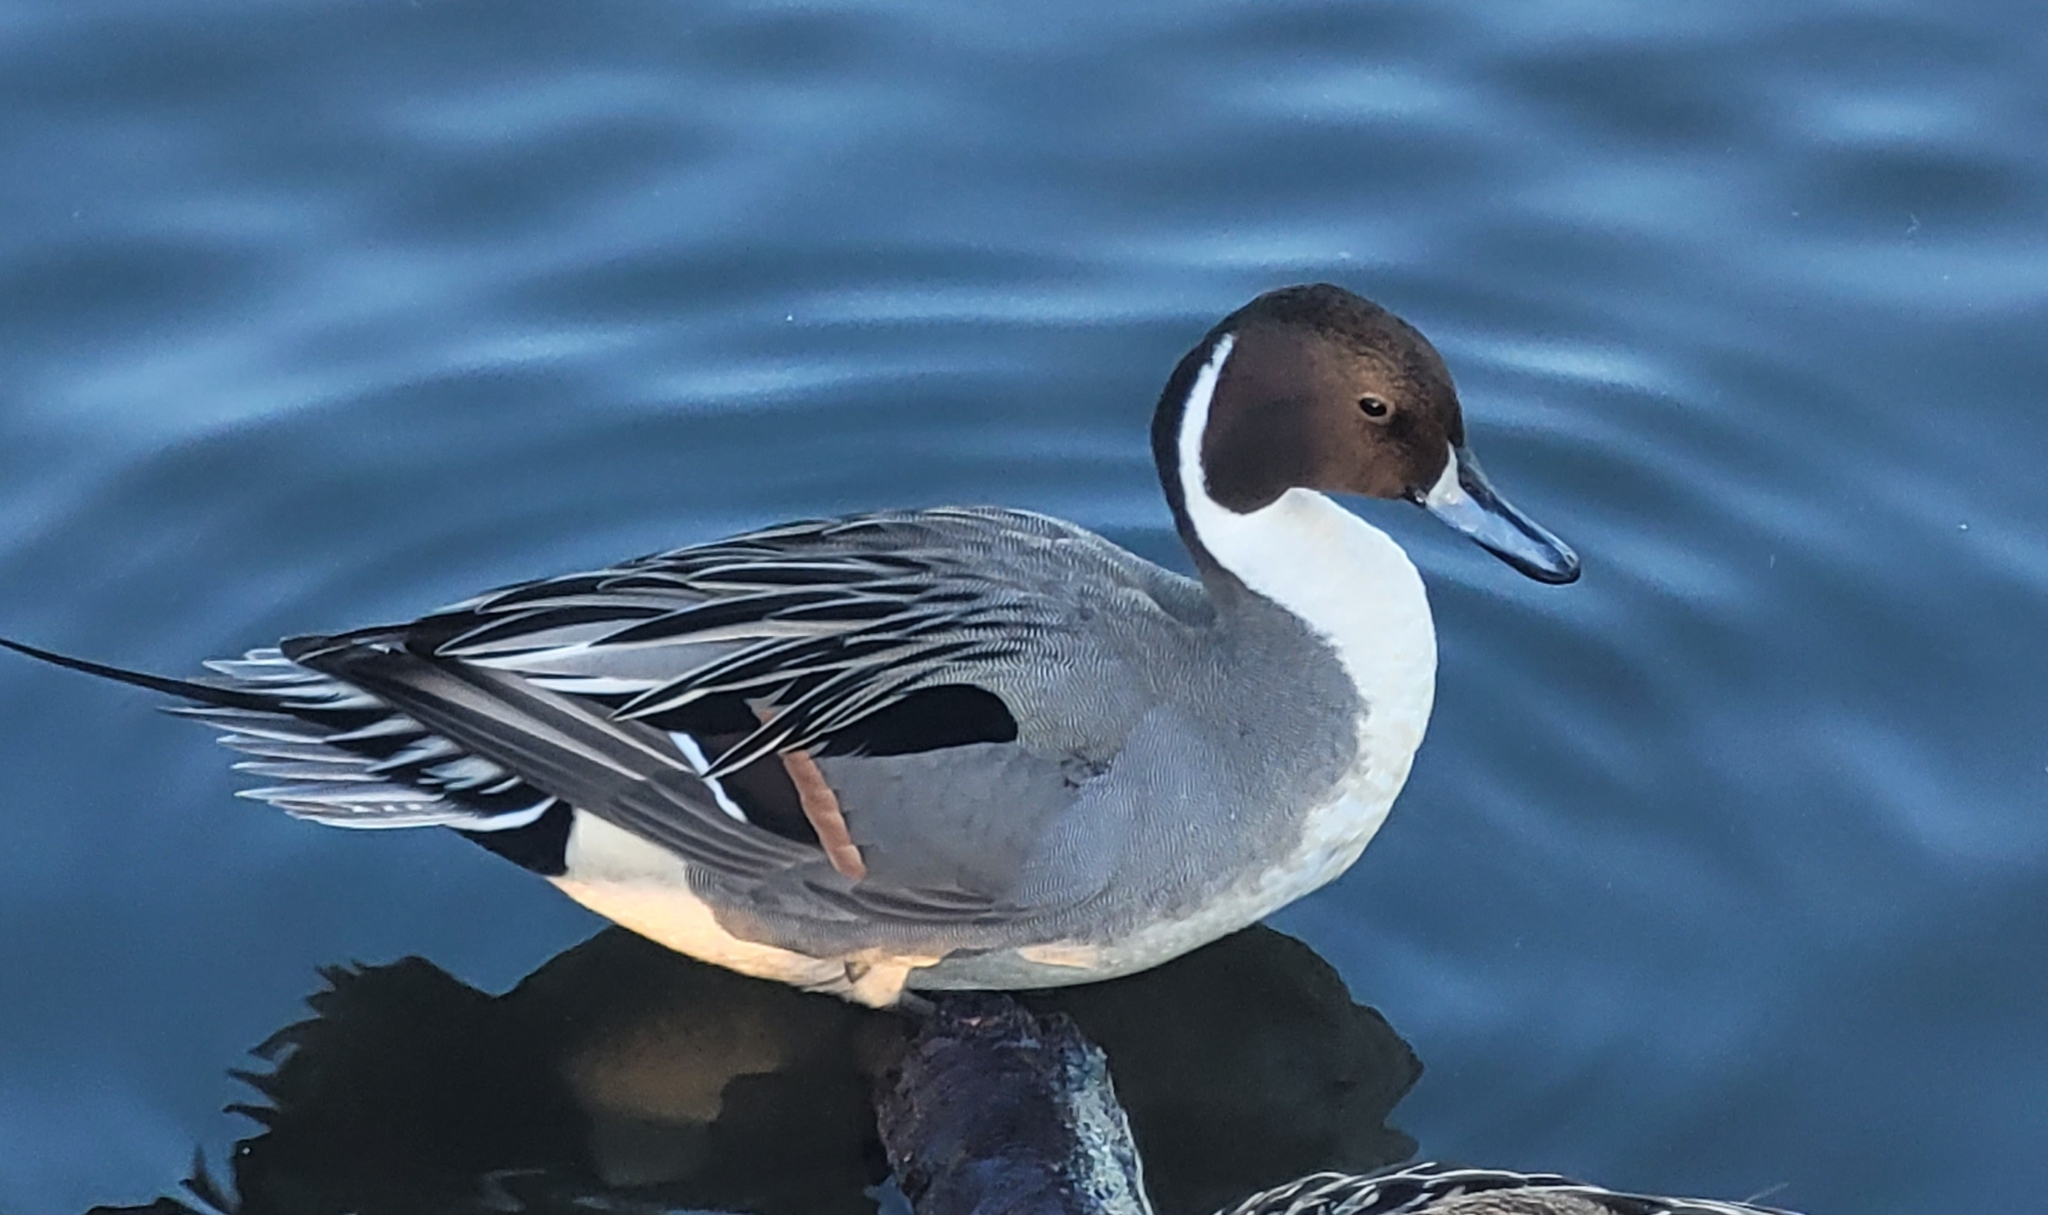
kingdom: Animalia
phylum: Chordata
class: Aves
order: Anseriformes
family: Anatidae
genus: Anas
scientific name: Anas acuta
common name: Northern pintail
